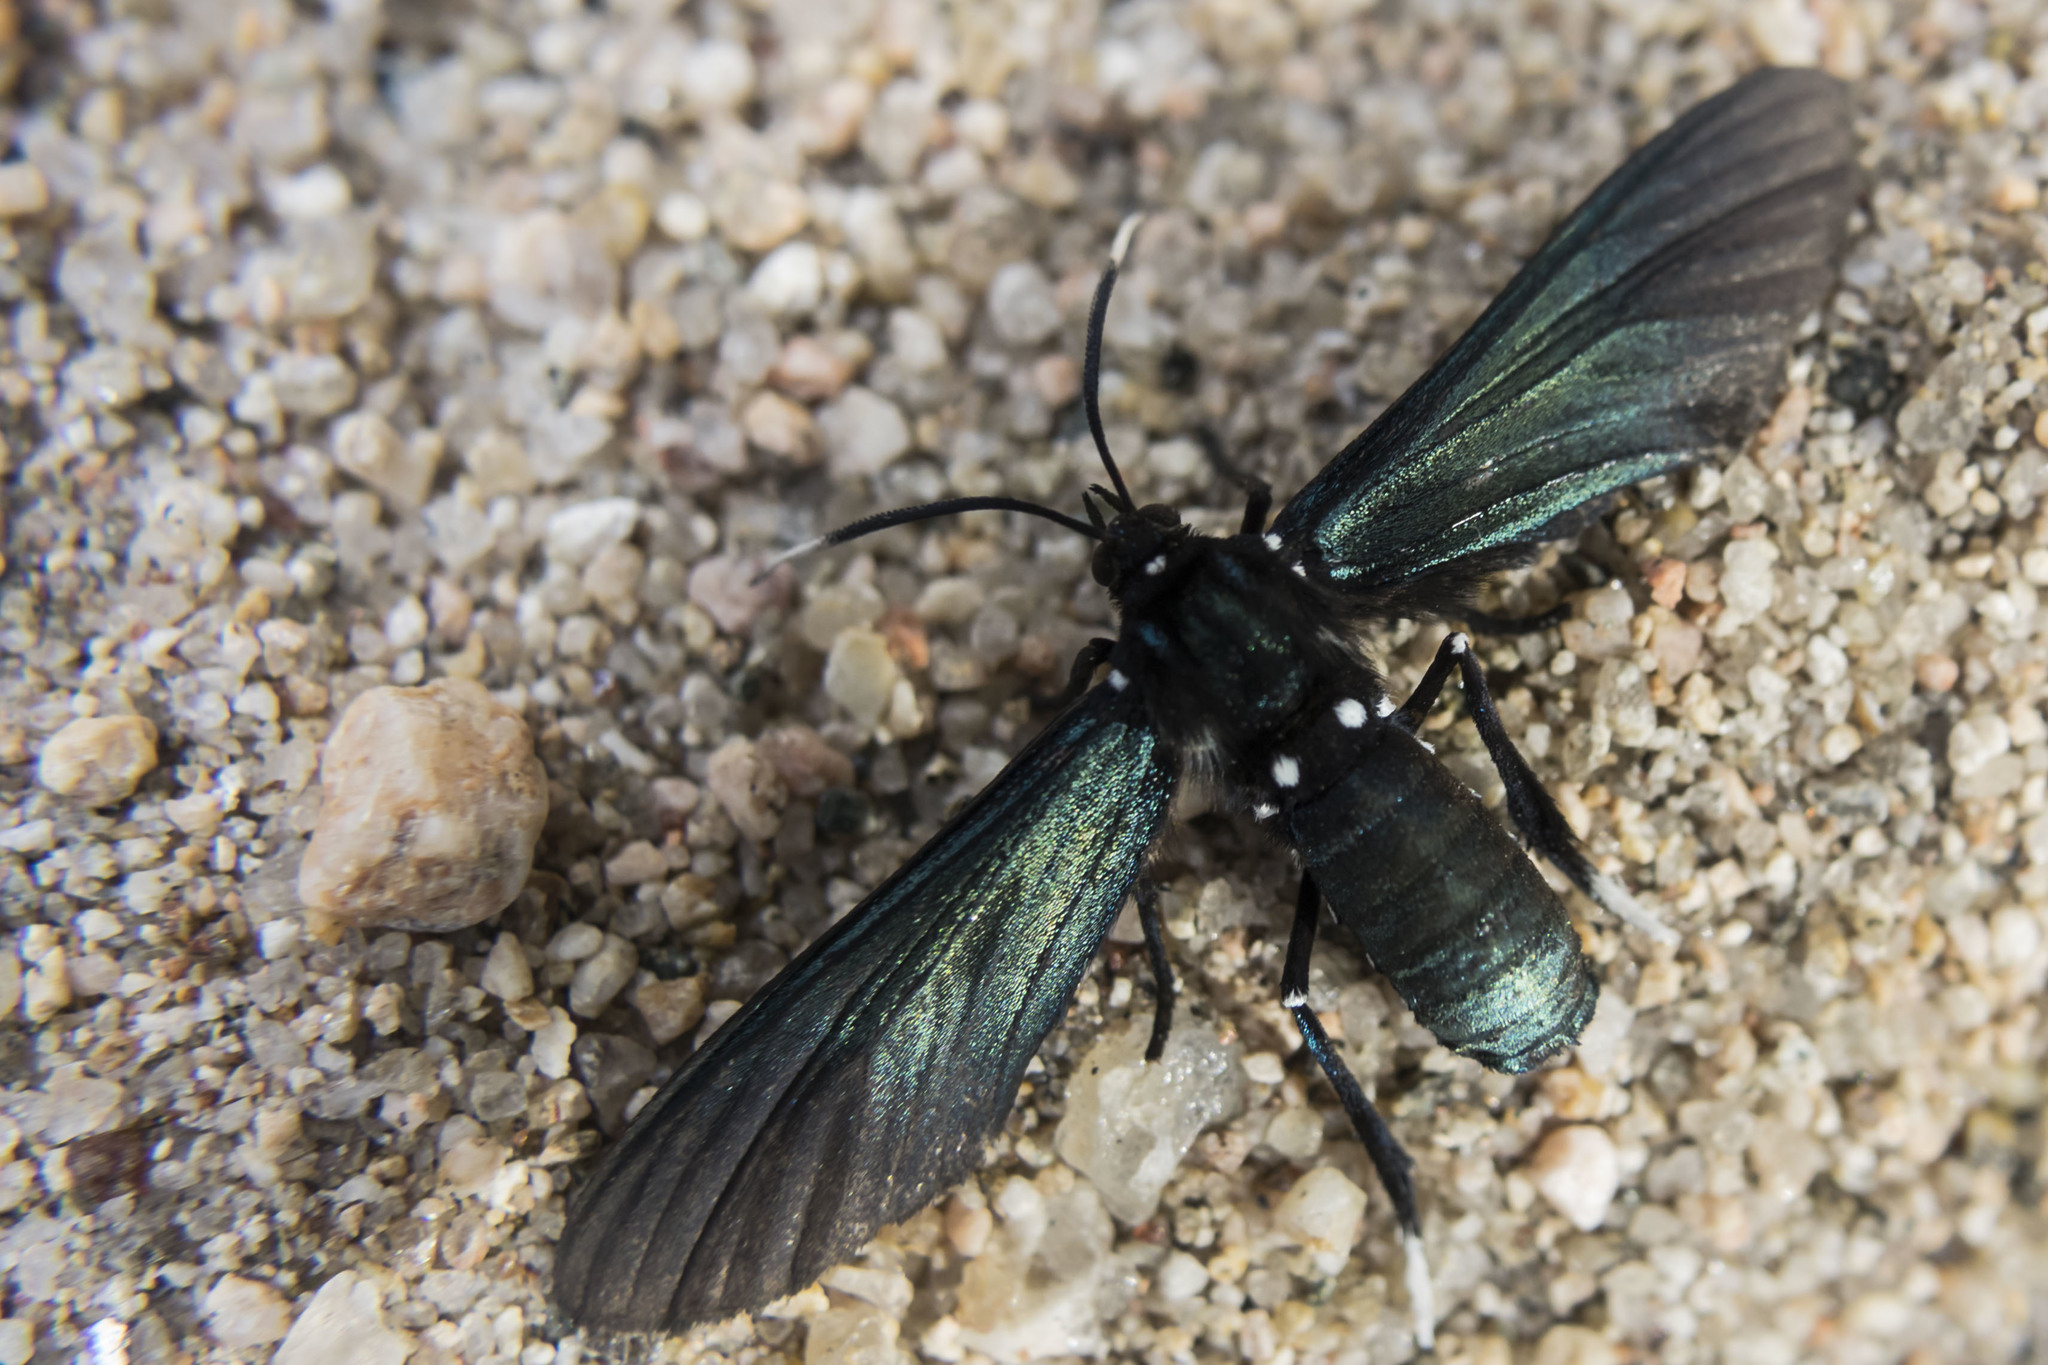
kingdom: Animalia
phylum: Arthropoda
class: Insecta
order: Lepidoptera
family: Erebidae
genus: Macrocneme
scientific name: Macrocneme leucostigma
